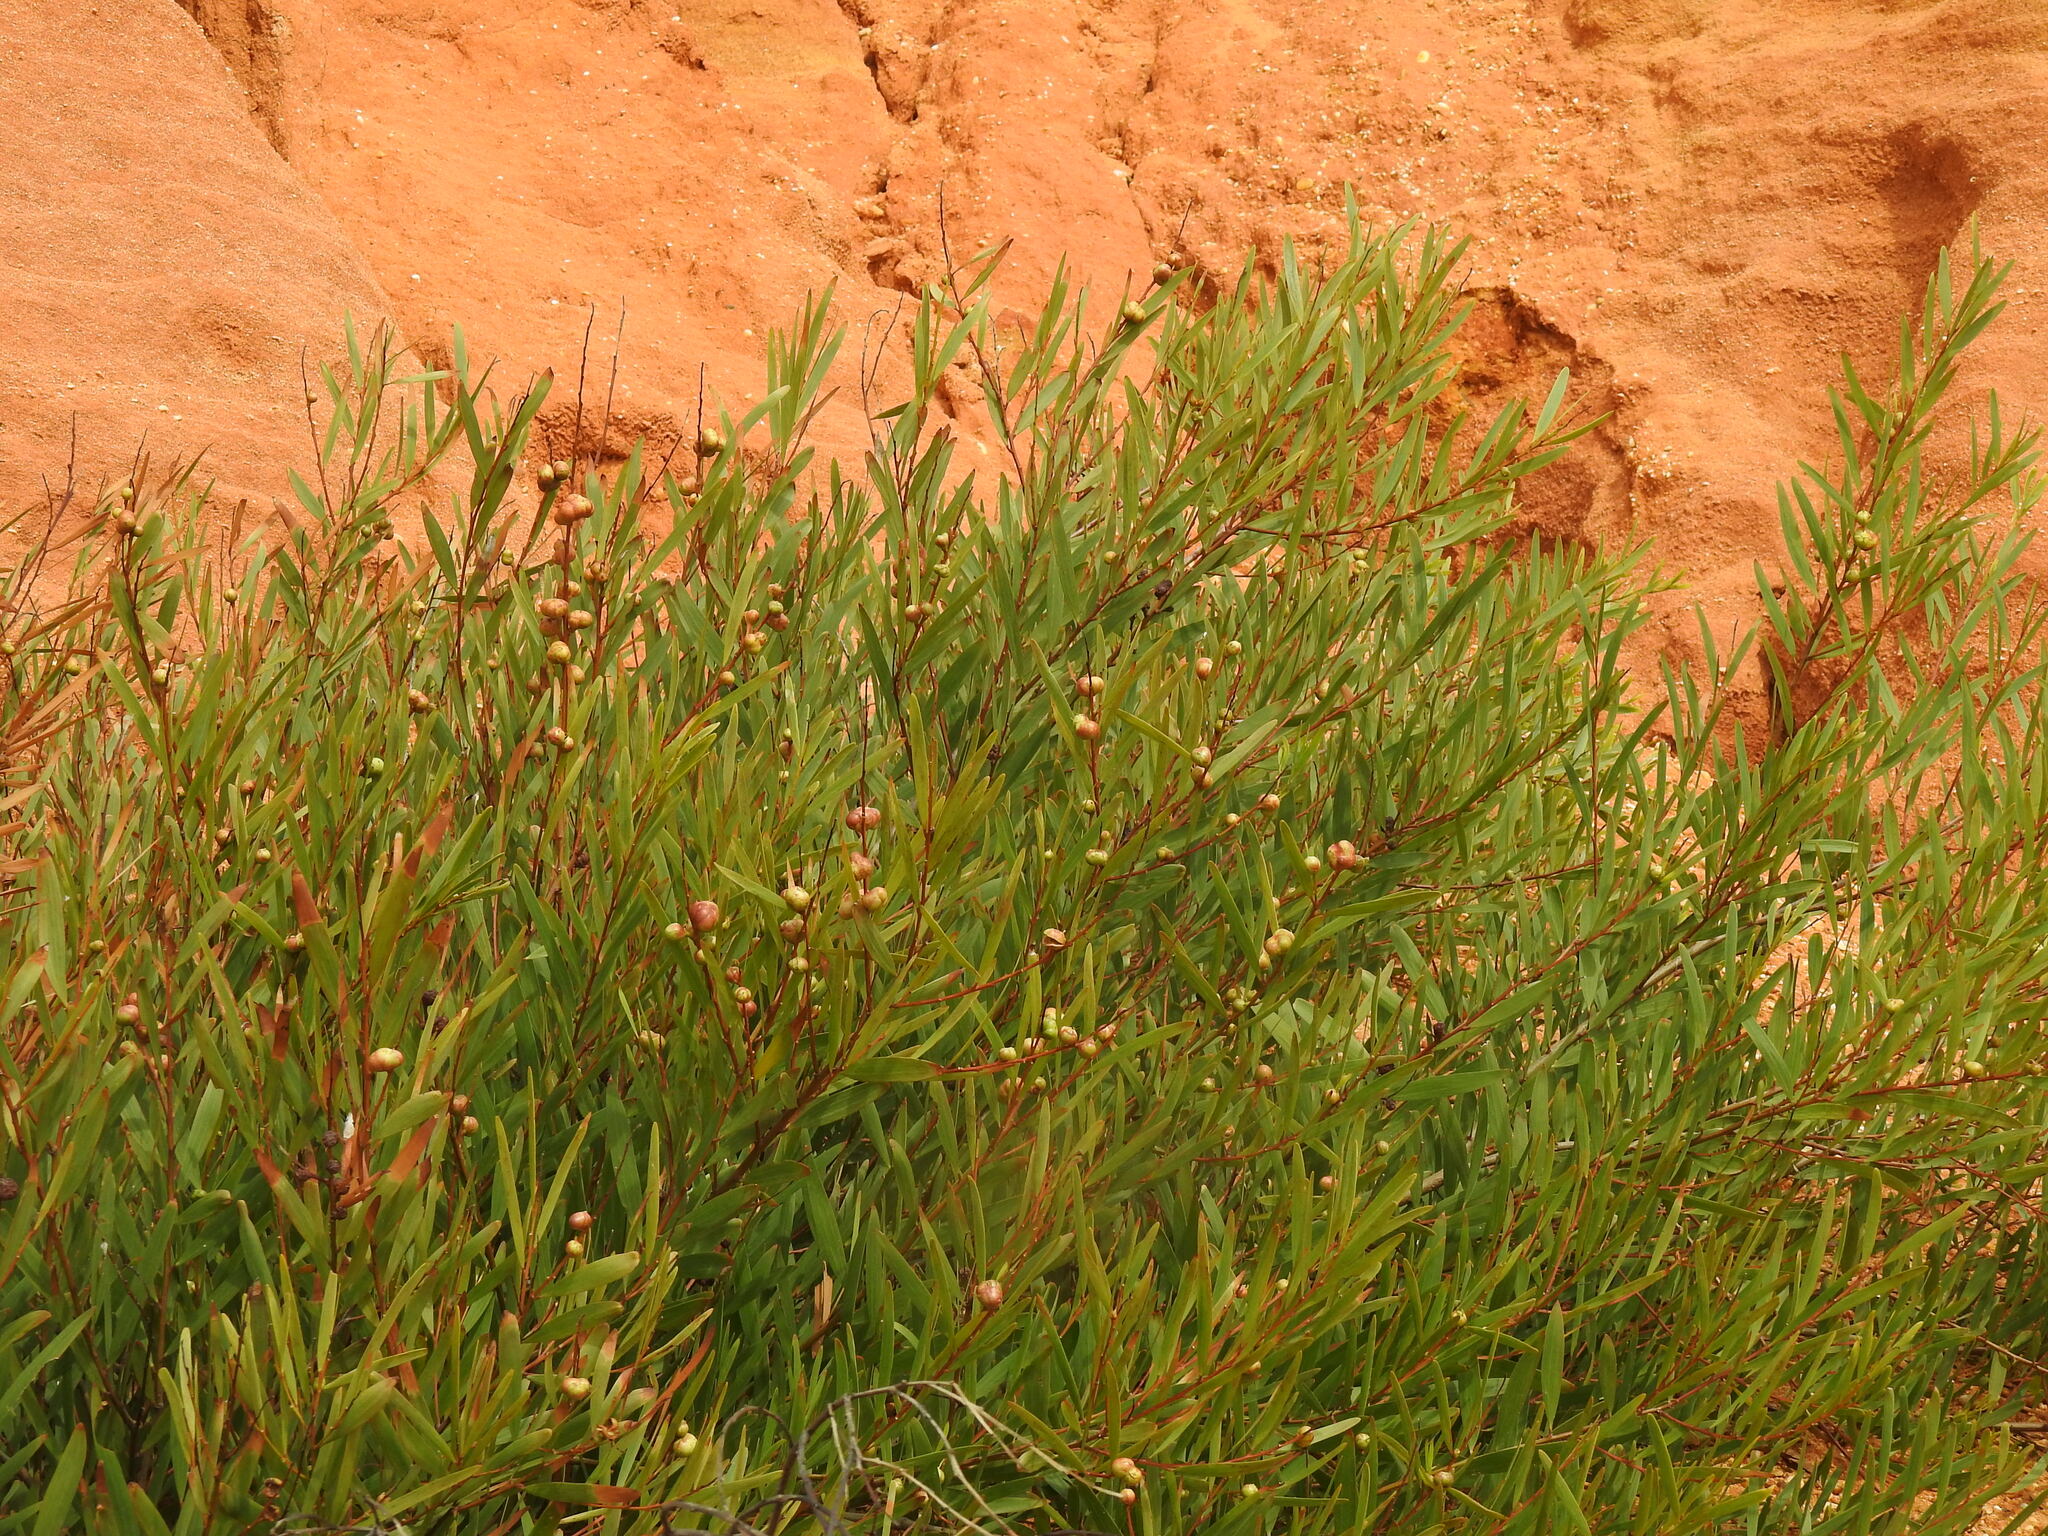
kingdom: Plantae
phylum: Tracheophyta
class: Magnoliopsida
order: Fabales
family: Fabaceae
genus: Acacia
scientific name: Acacia longifolia
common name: Sydney golden wattle
